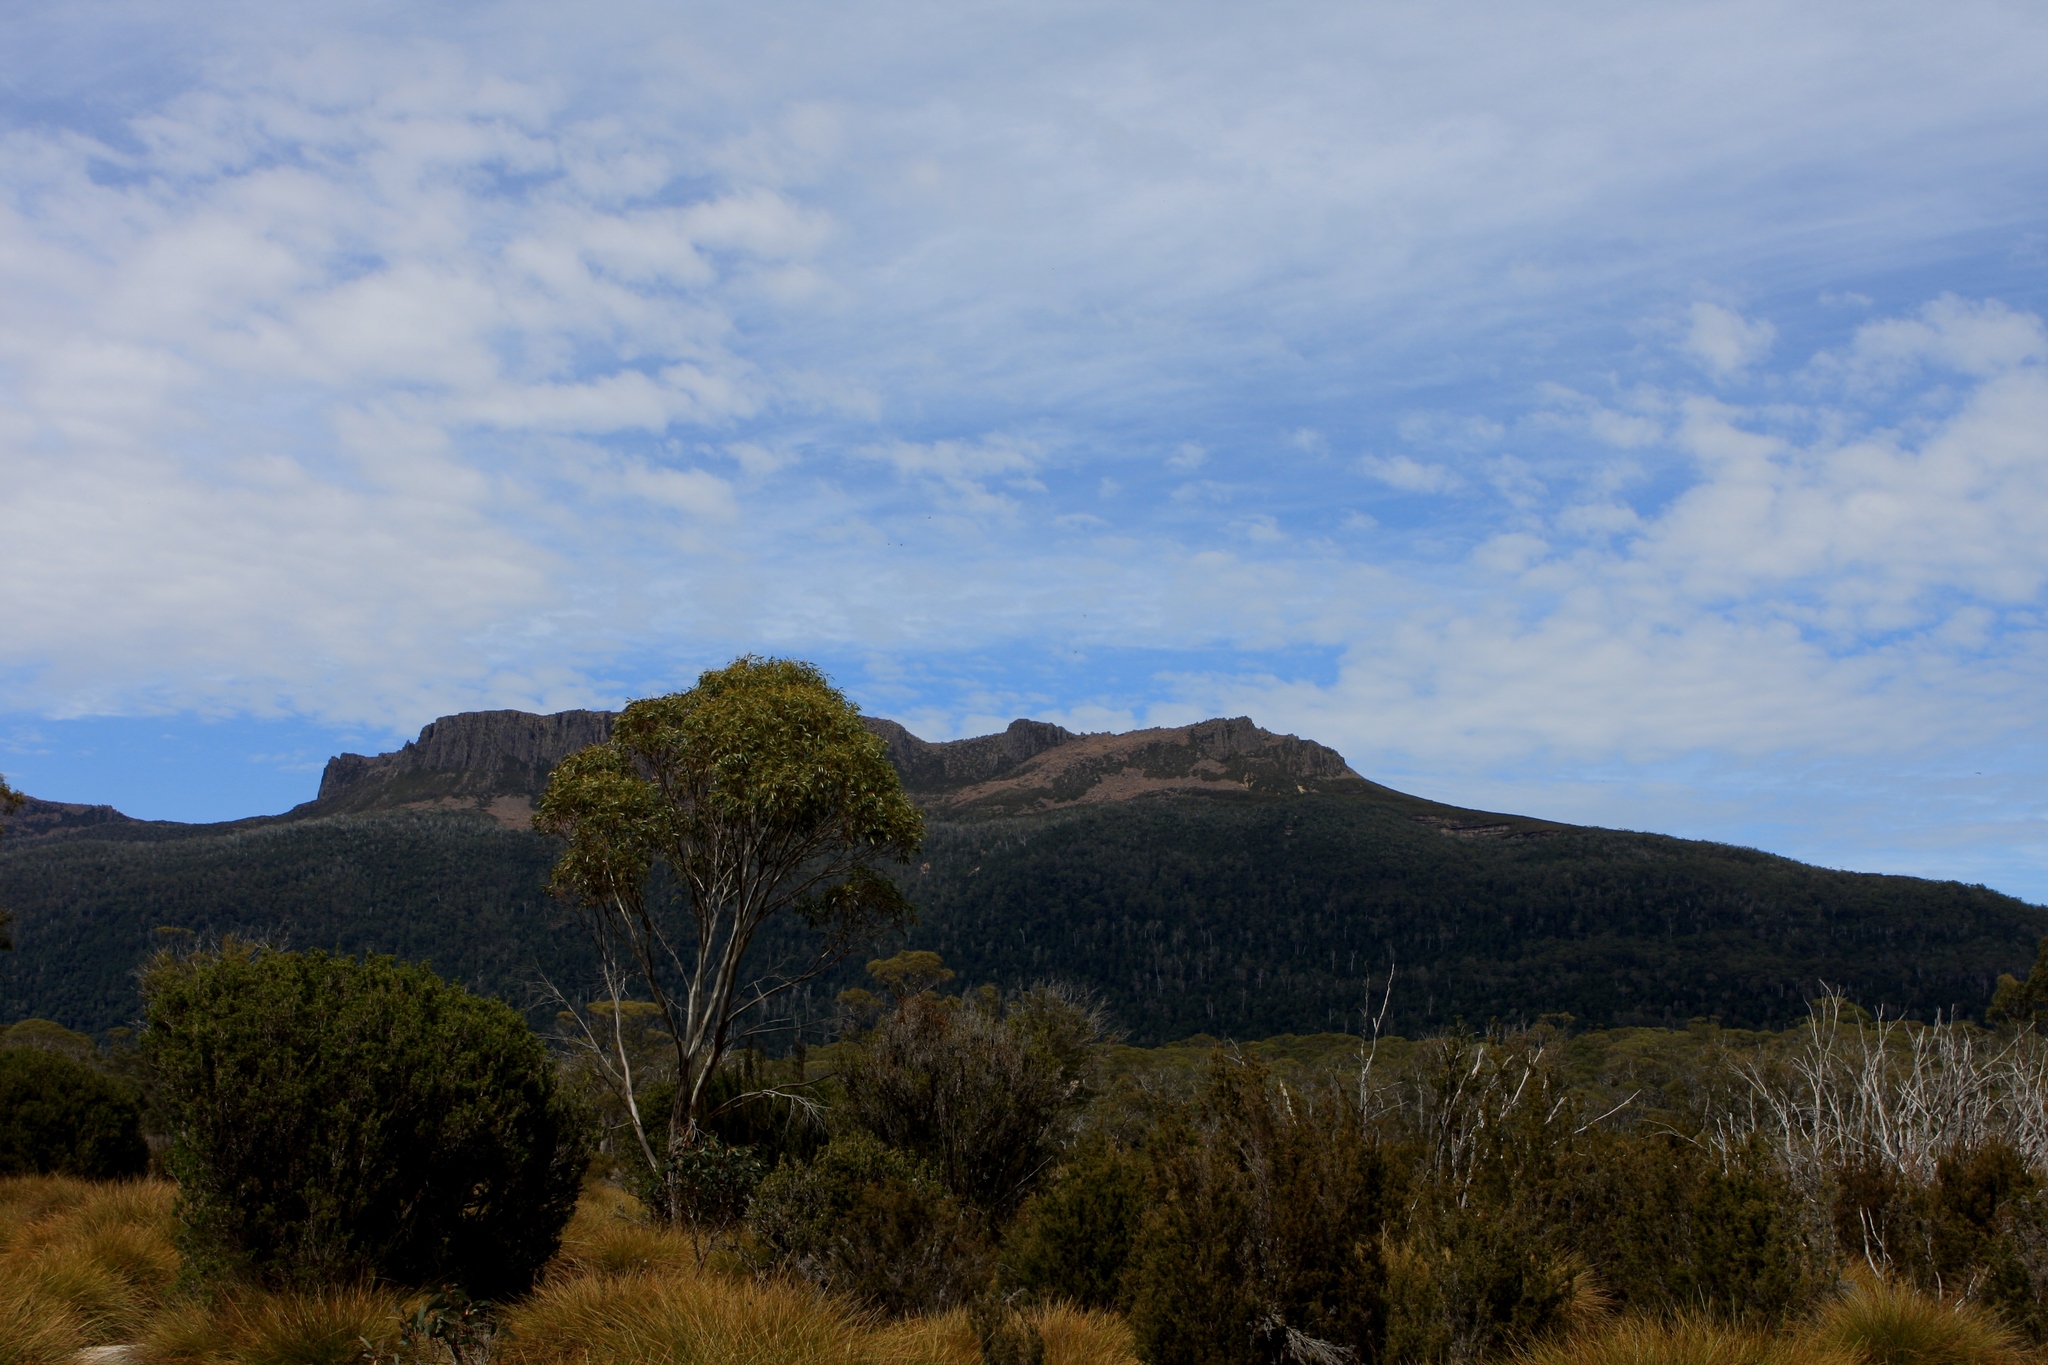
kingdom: Plantae
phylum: Tracheophyta
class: Liliopsida
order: Poales
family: Cyperaceae
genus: Gymnoschoenus
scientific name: Gymnoschoenus sphaerocephalus
